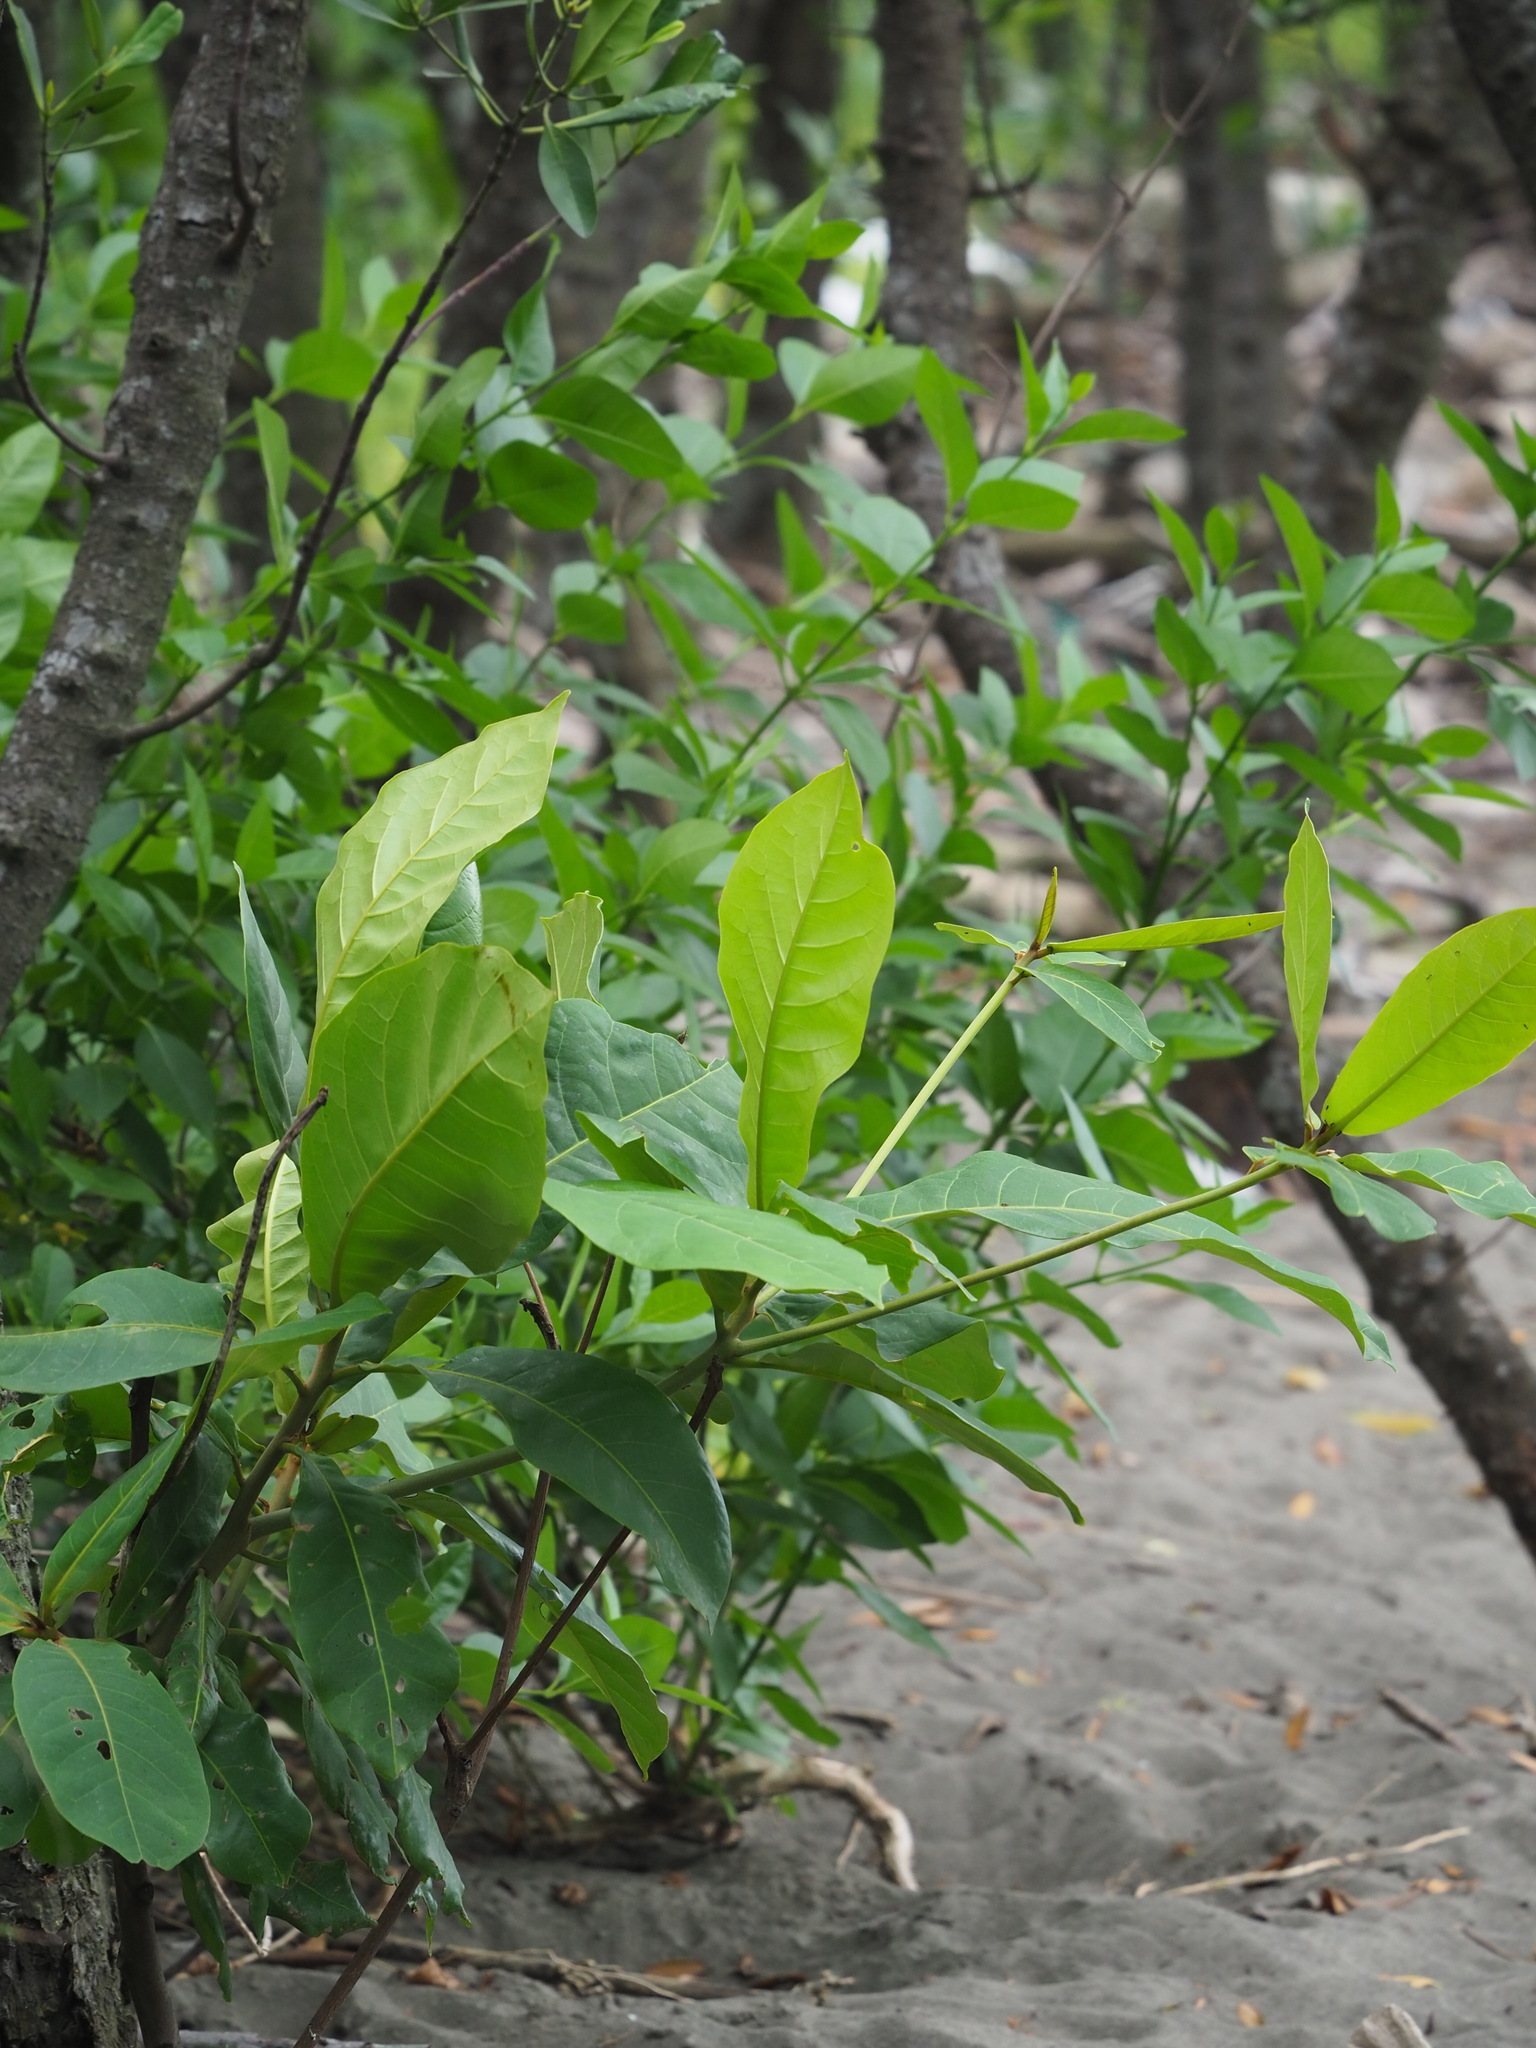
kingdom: Plantae
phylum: Tracheophyta
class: Magnoliopsida
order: Myrtales
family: Combretaceae
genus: Terminalia
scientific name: Terminalia catappa
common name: Tropical almond
